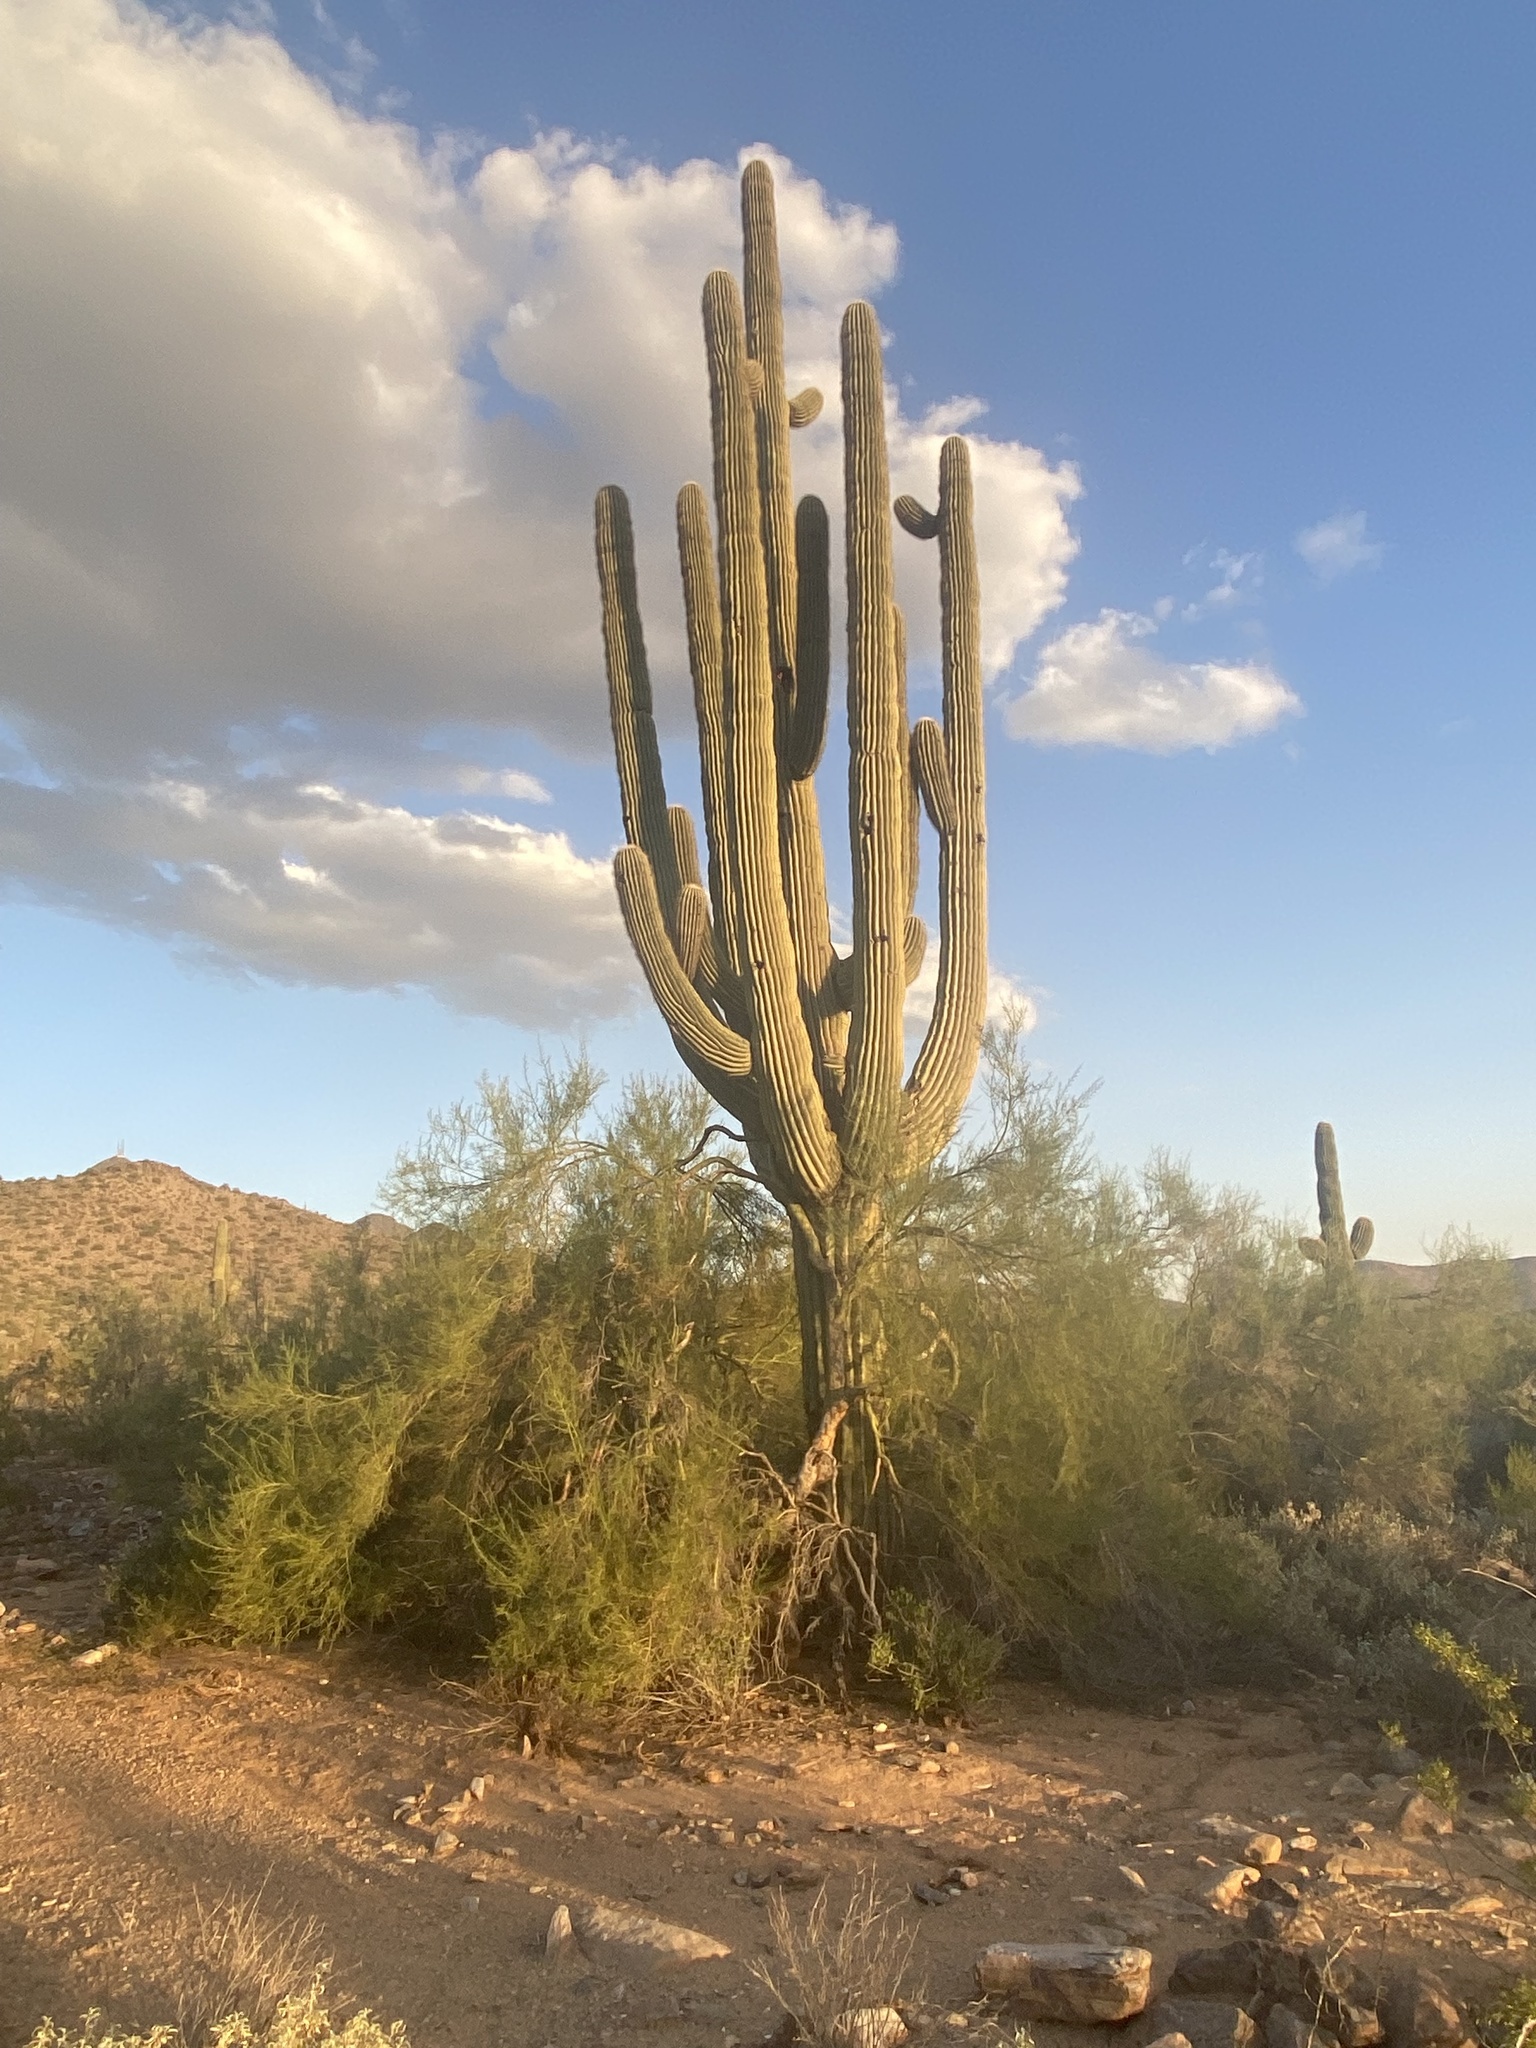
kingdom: Plantae
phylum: Tracheophyta
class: Magnoliopsida
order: Caryophyllales
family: Cactaceae
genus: Carnegiea
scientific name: Carnegiea gigantea
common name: Saguaro
